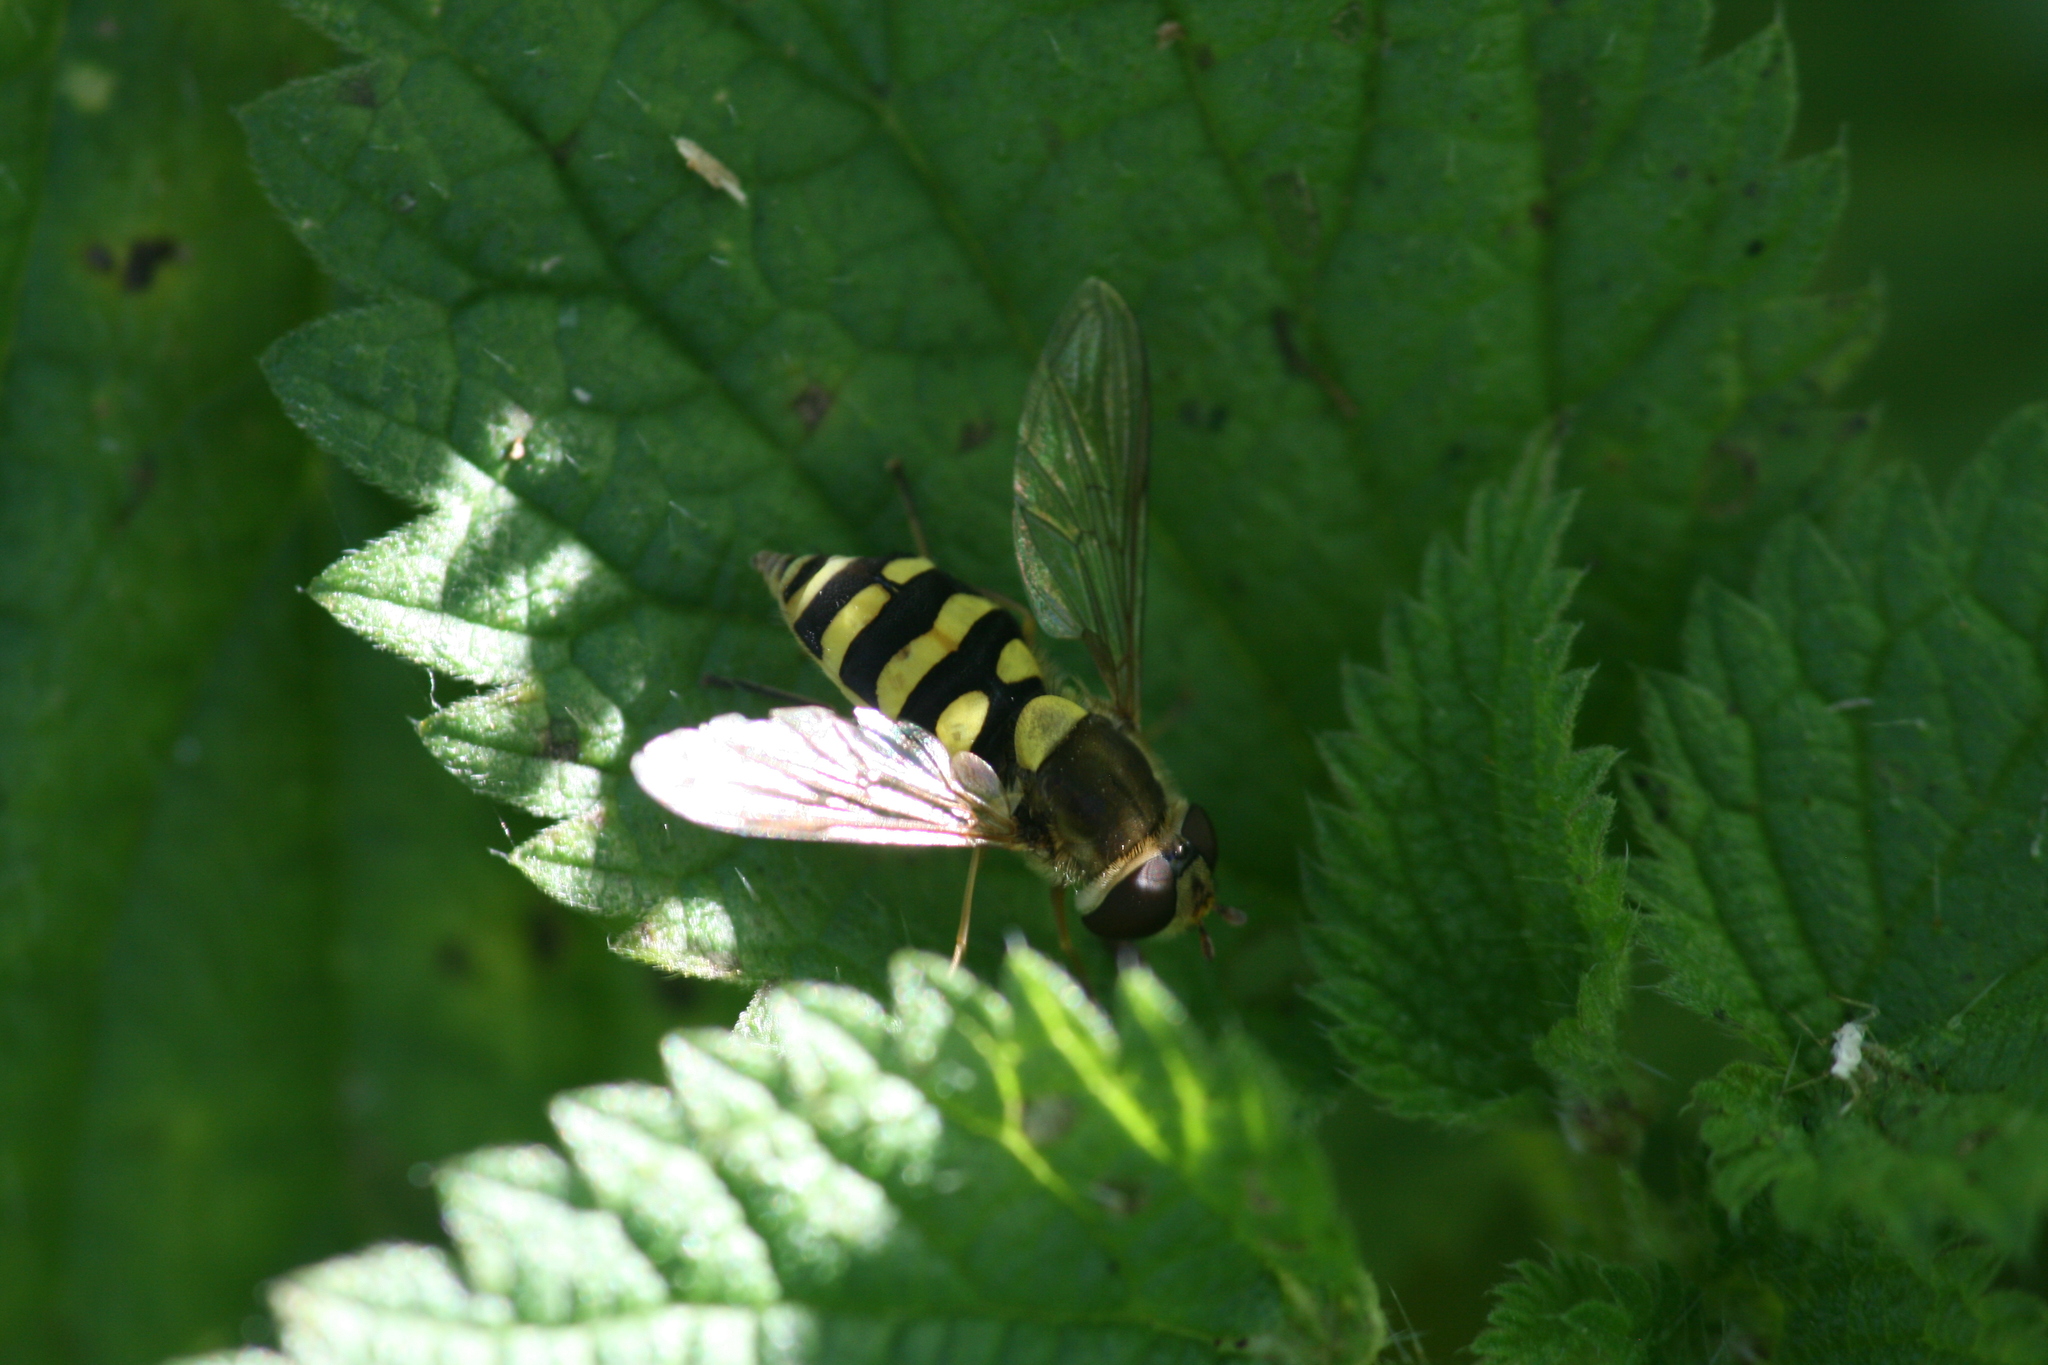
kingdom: Animalia
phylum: Arthropoda
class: Insecta
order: Diptera
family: Syrphidae
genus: Syrphus
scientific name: Syrphus
